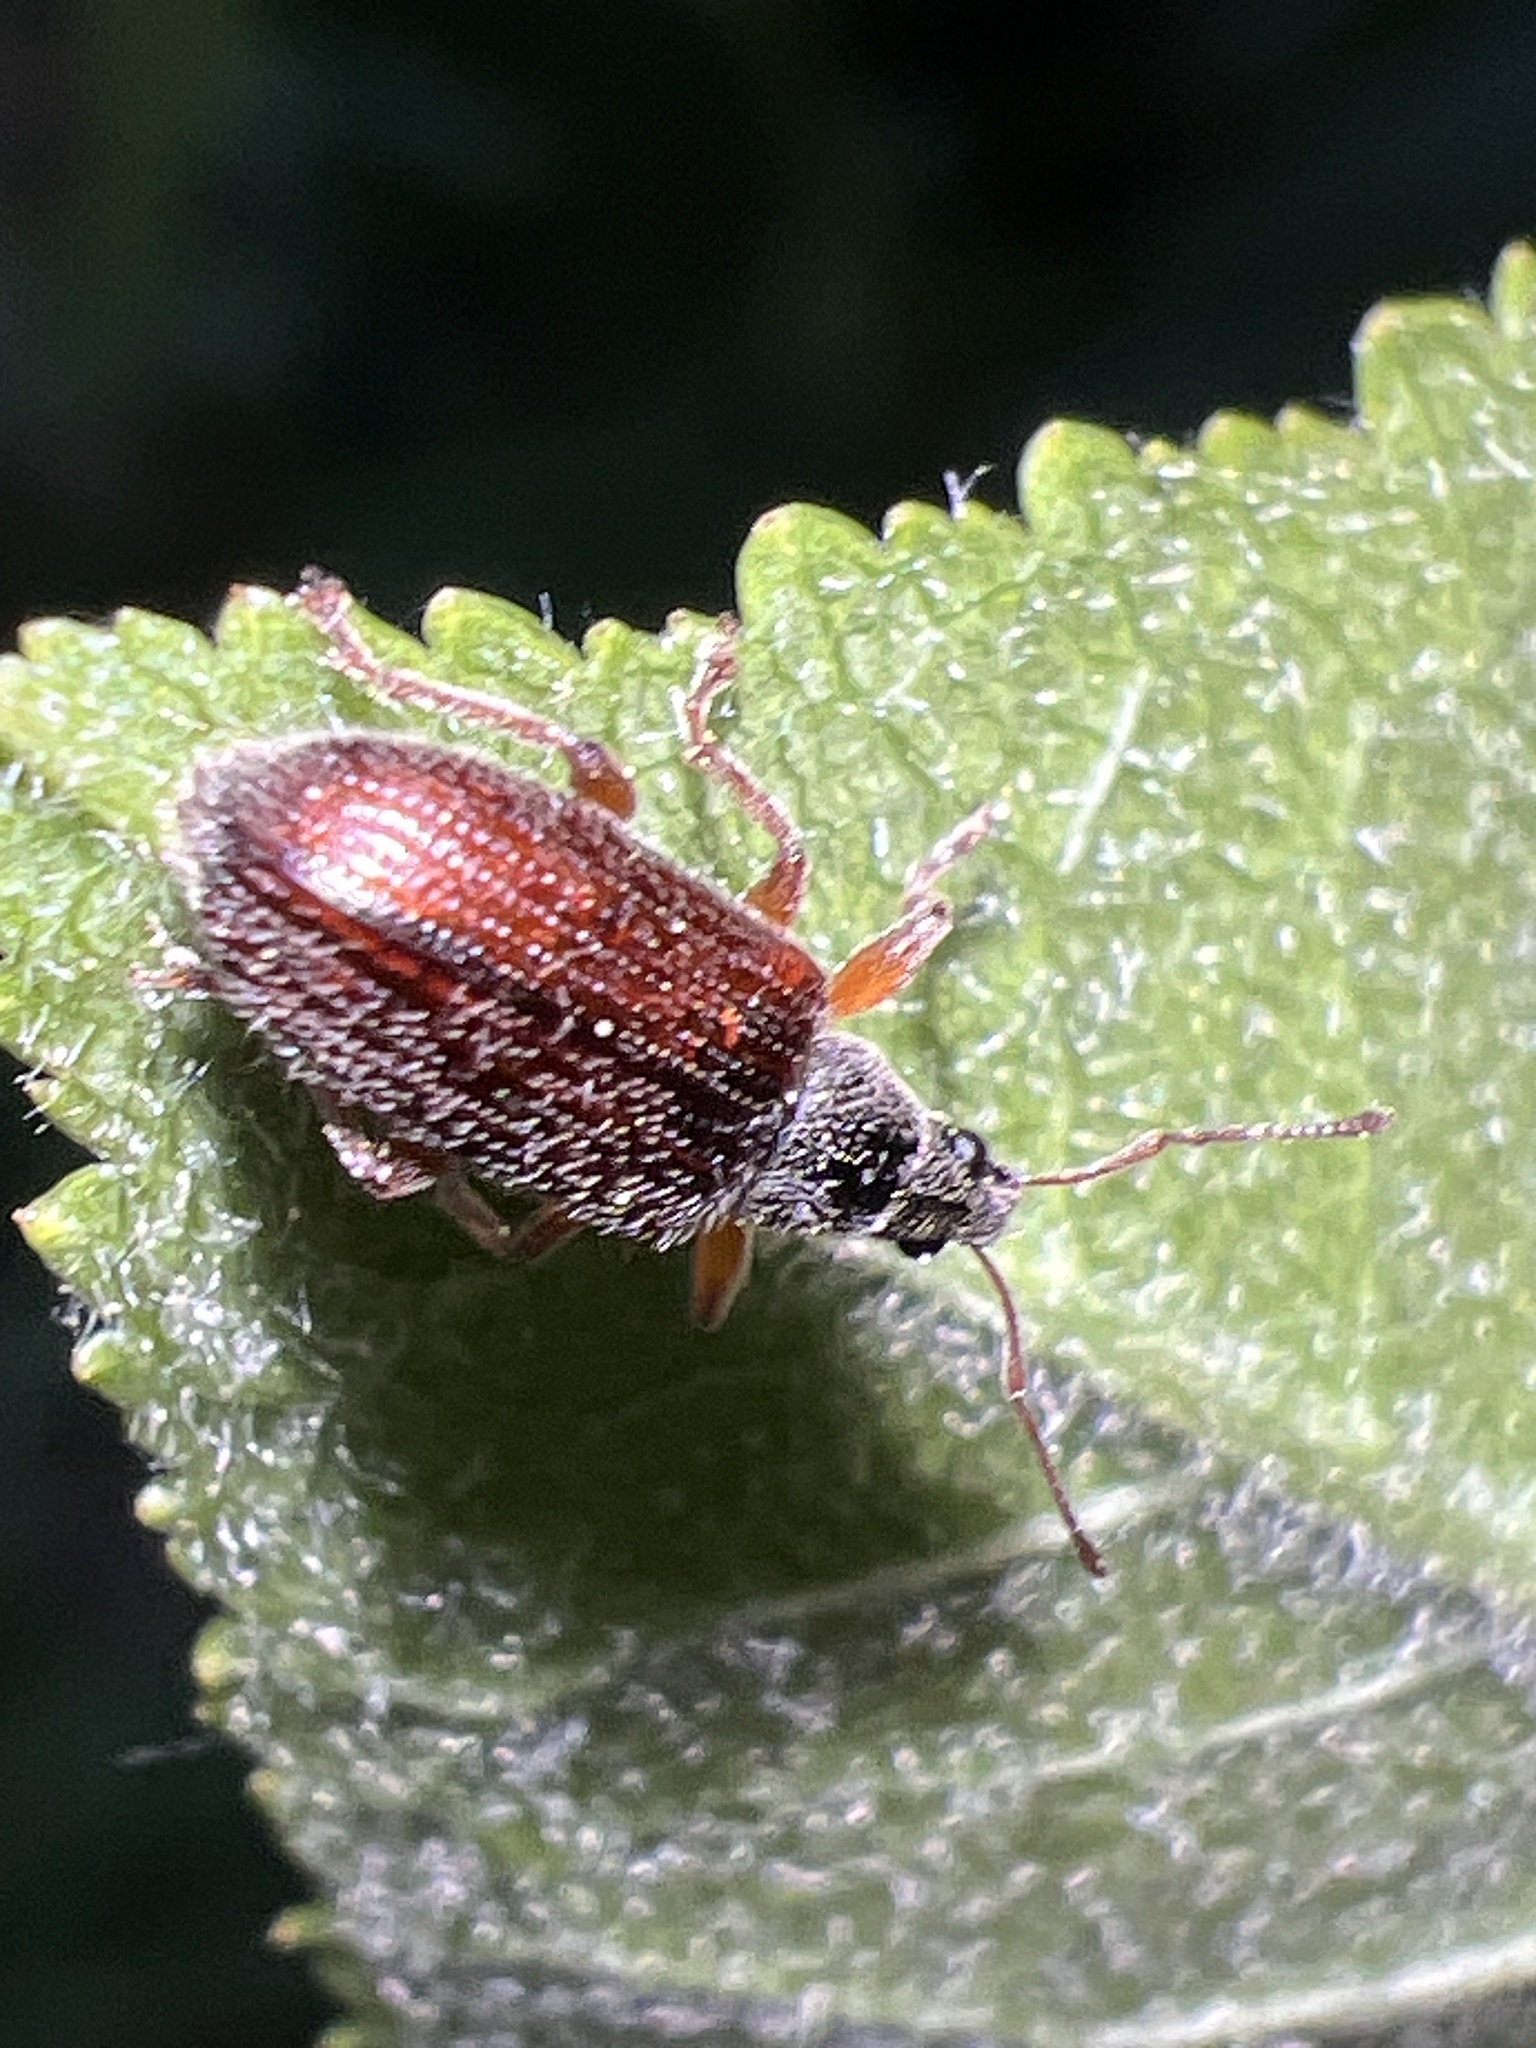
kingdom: Animalia
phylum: Arthropoda
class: Insecta
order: Coleoptera
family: Curculionidae
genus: Phyllobius
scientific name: Phyllobius oblongus
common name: Brown leaf weevil
